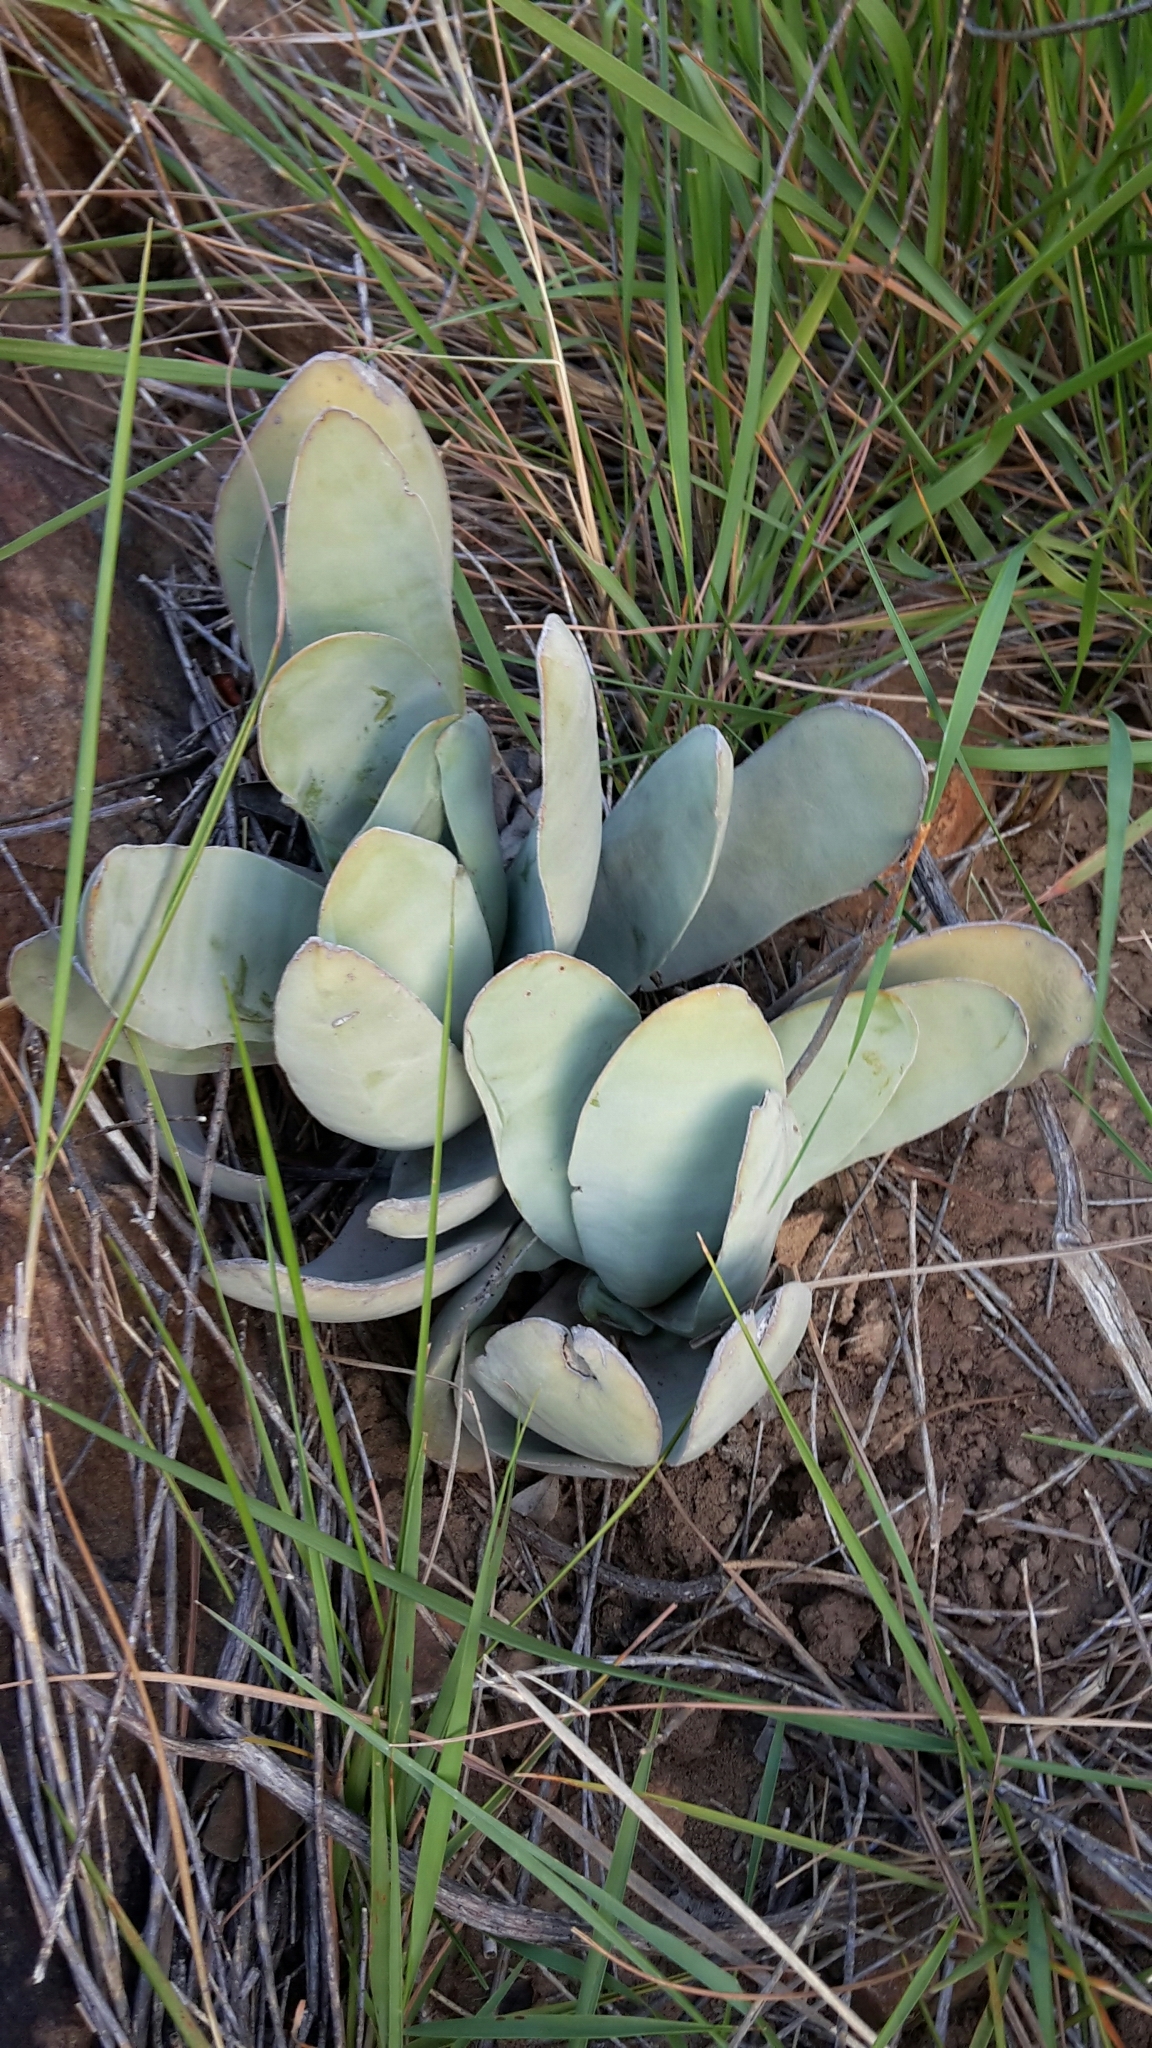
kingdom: Plantae
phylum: Tracheophyta
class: Magnoliopsida
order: Saxifragales
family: Crassulaceae
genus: Crassula
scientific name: Crassula perfoliata
